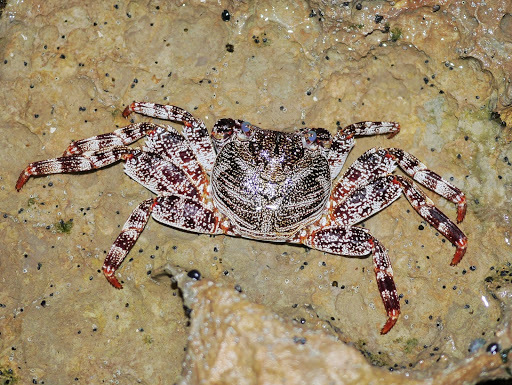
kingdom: Animalia
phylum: Arthropoda
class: Malacostraca
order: Decapoda
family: Grapsidae
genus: Grapsus
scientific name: Grapsus adscensionis
